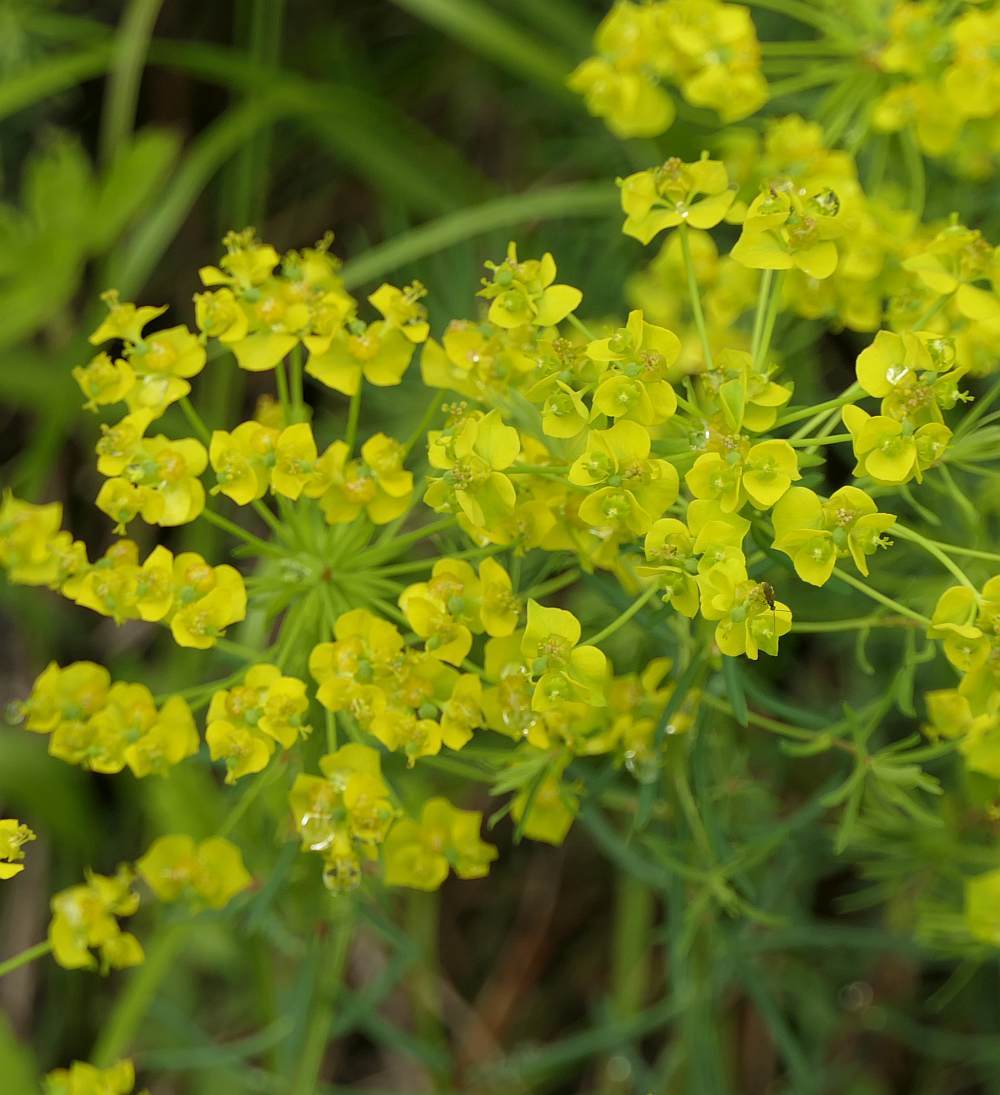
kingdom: Plantae
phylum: Tracheophyta
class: Magnoliopsida
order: Malpighiales
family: Euphorbiaceae
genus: Euphorbia
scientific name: Euphorbia cyparissias
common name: Cypress spurge
